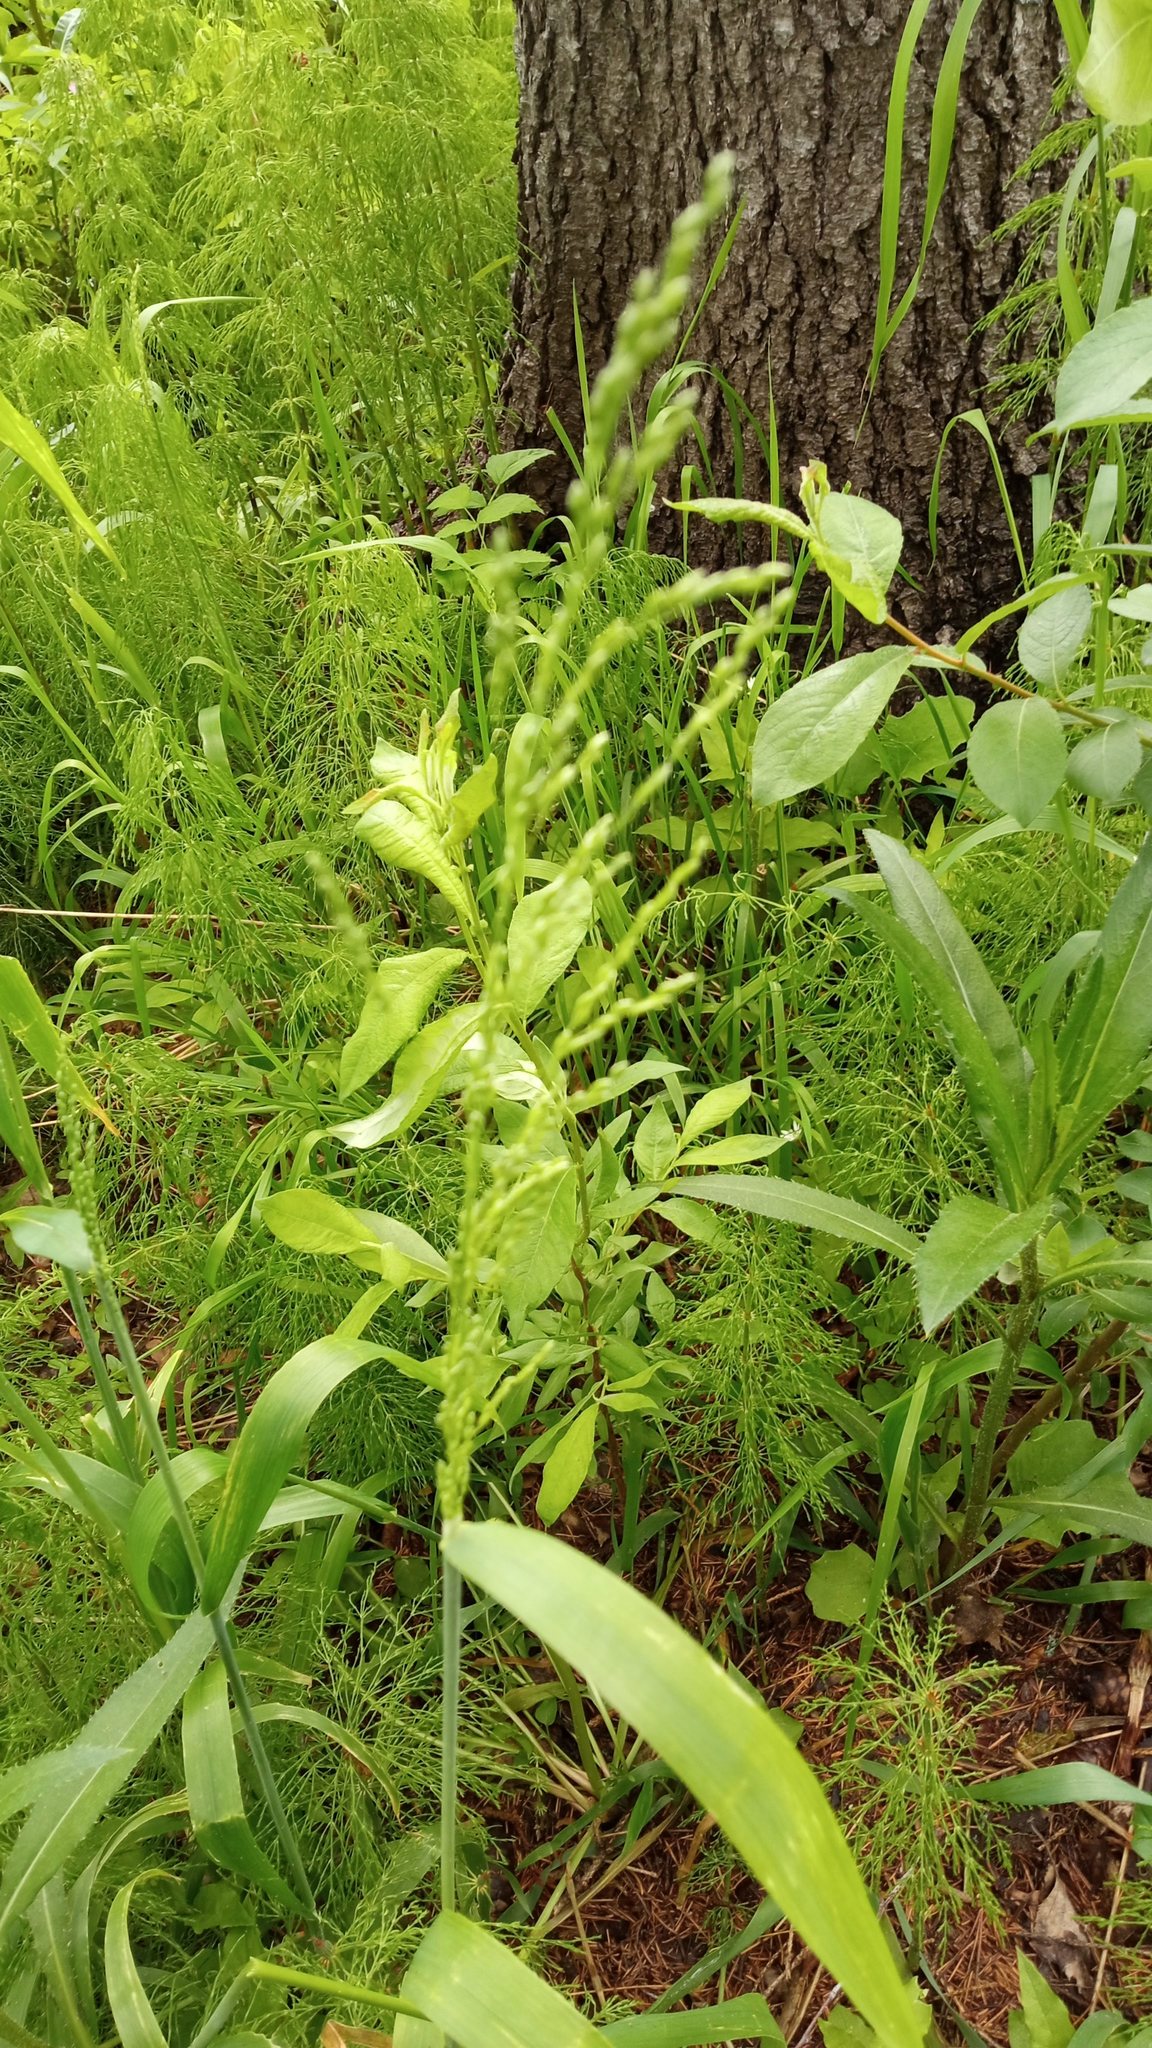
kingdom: Plantae
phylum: Tracheophyta
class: Liliopsida
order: Poales
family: Poaceae
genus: Milium
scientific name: Milium effusum
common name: Wood millet
